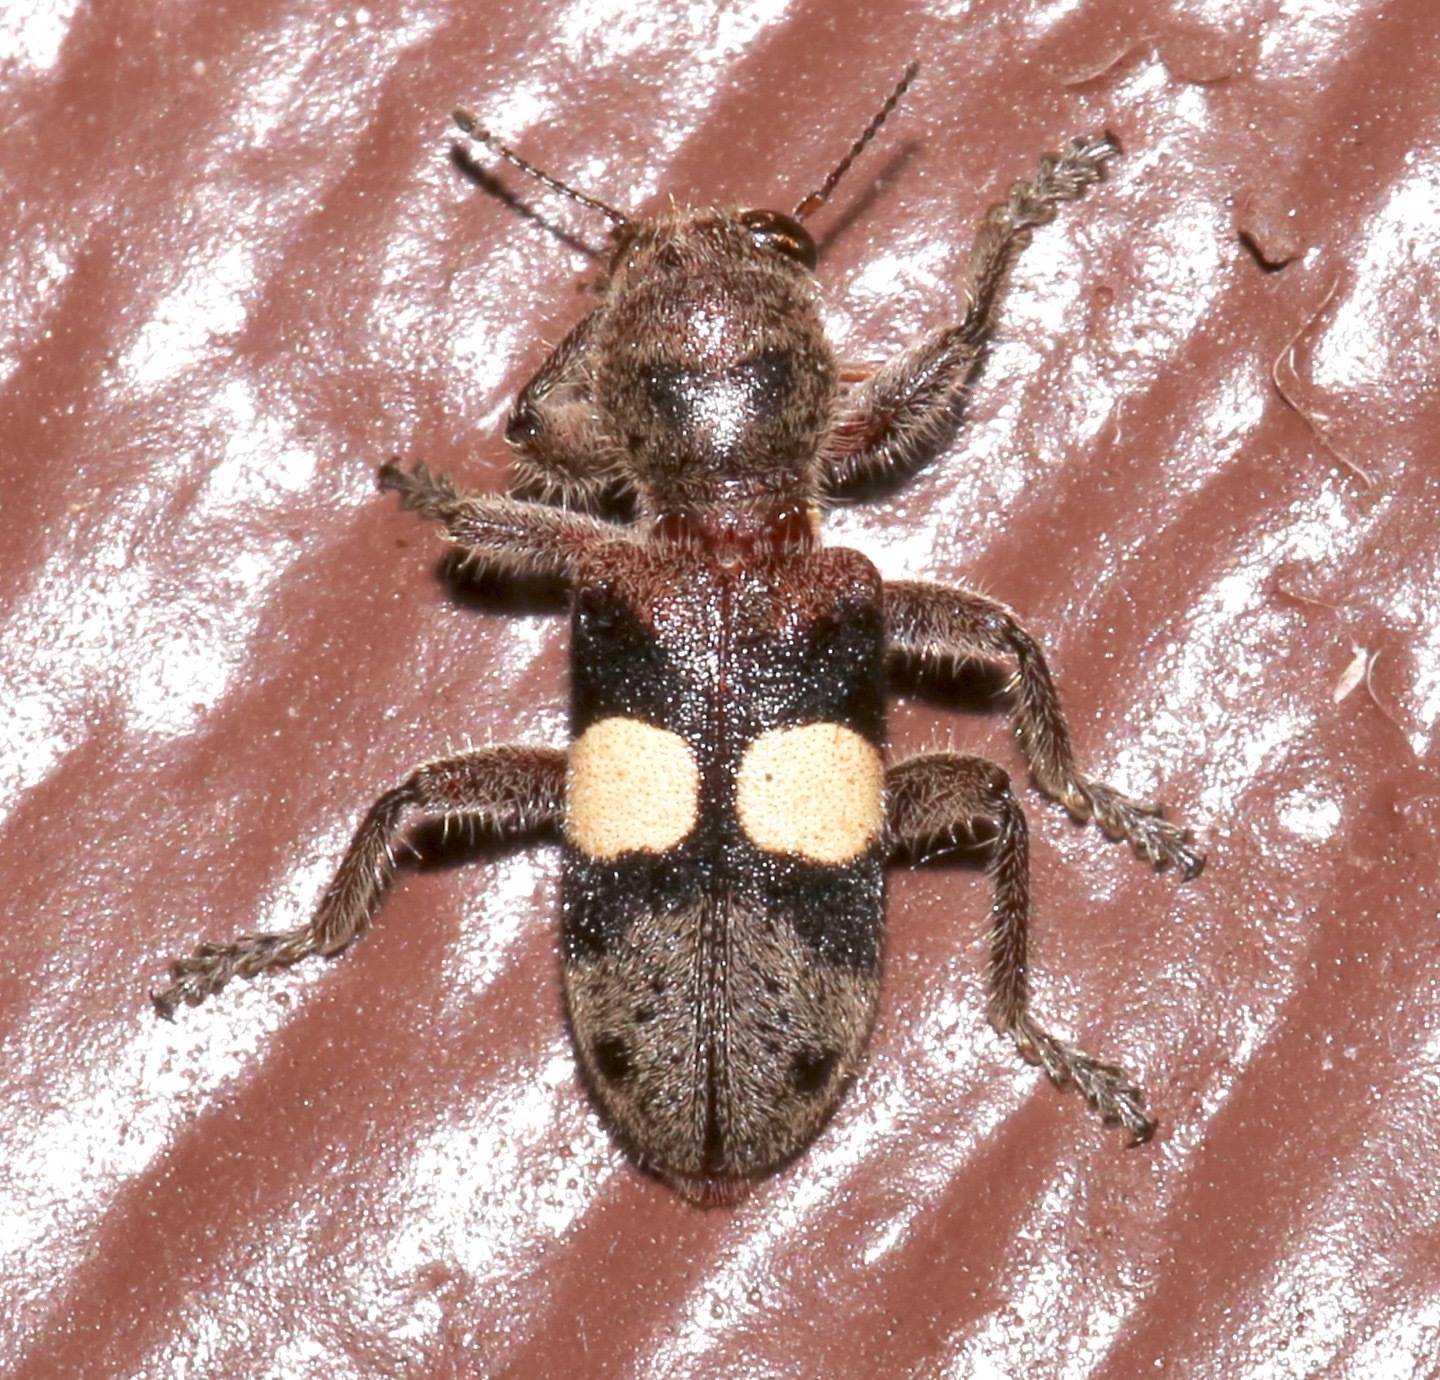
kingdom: Animalia
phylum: Arthropoda
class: Insecta
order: Coleoptera
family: Cleridae
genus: Enoclerus
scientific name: Enoclerus bimaculatus
